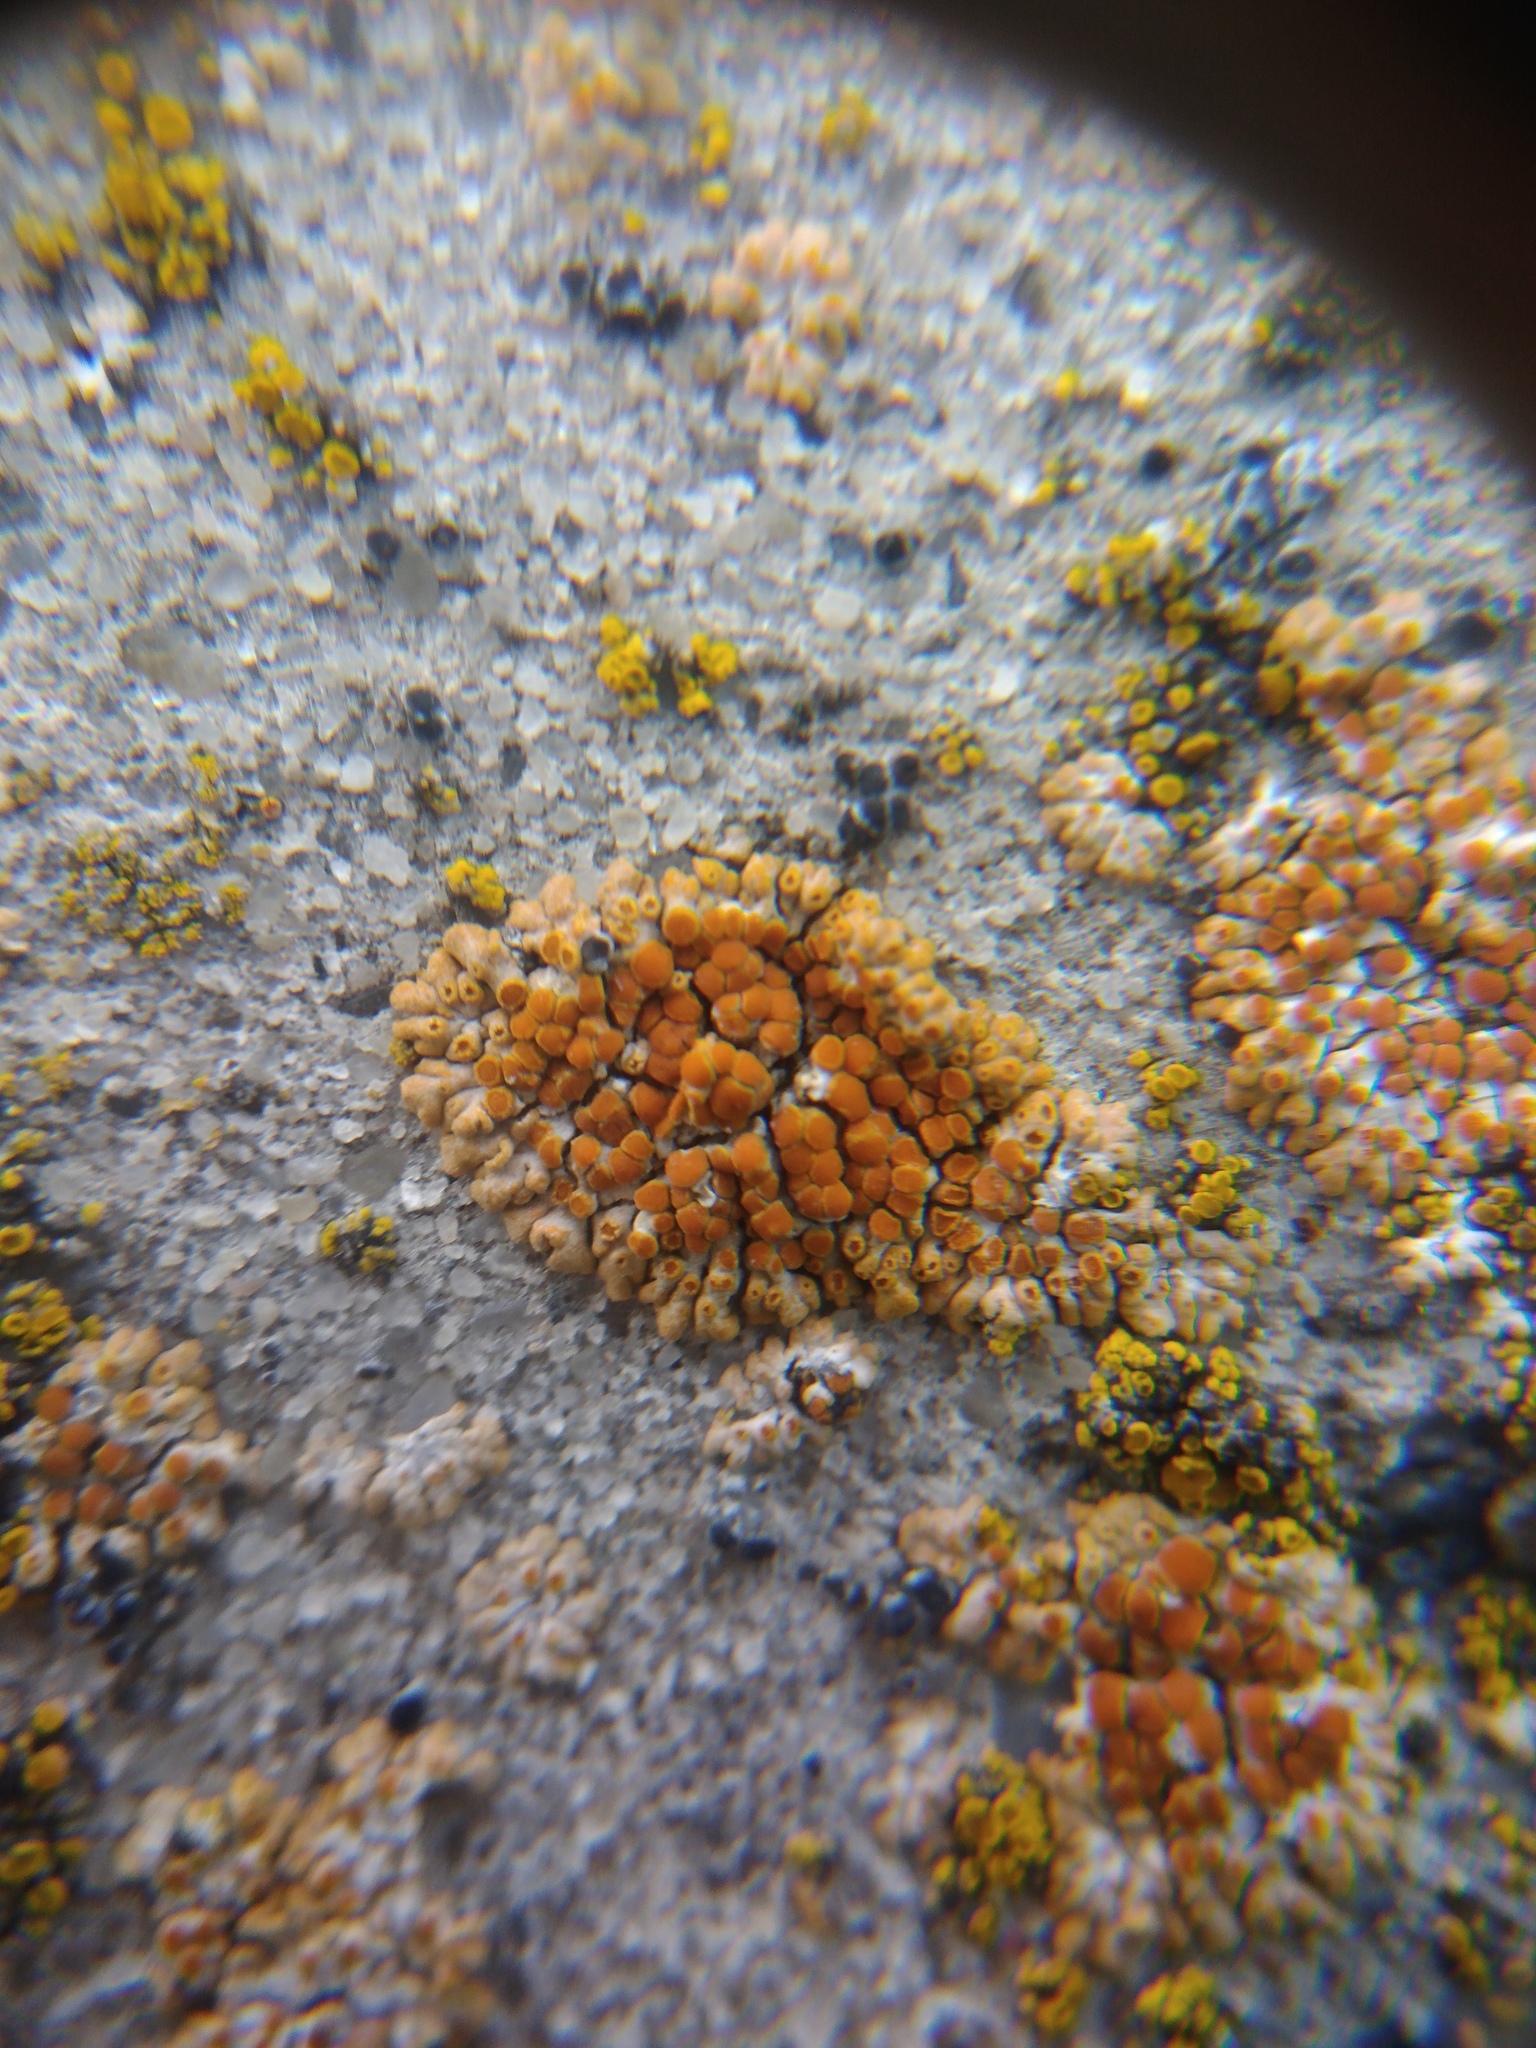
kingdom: Fungi
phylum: Ascomycota
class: Lecanoromycetes
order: Teloschistales
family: Teloschistaceae
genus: Calogaya
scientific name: Calogaya pusilla
